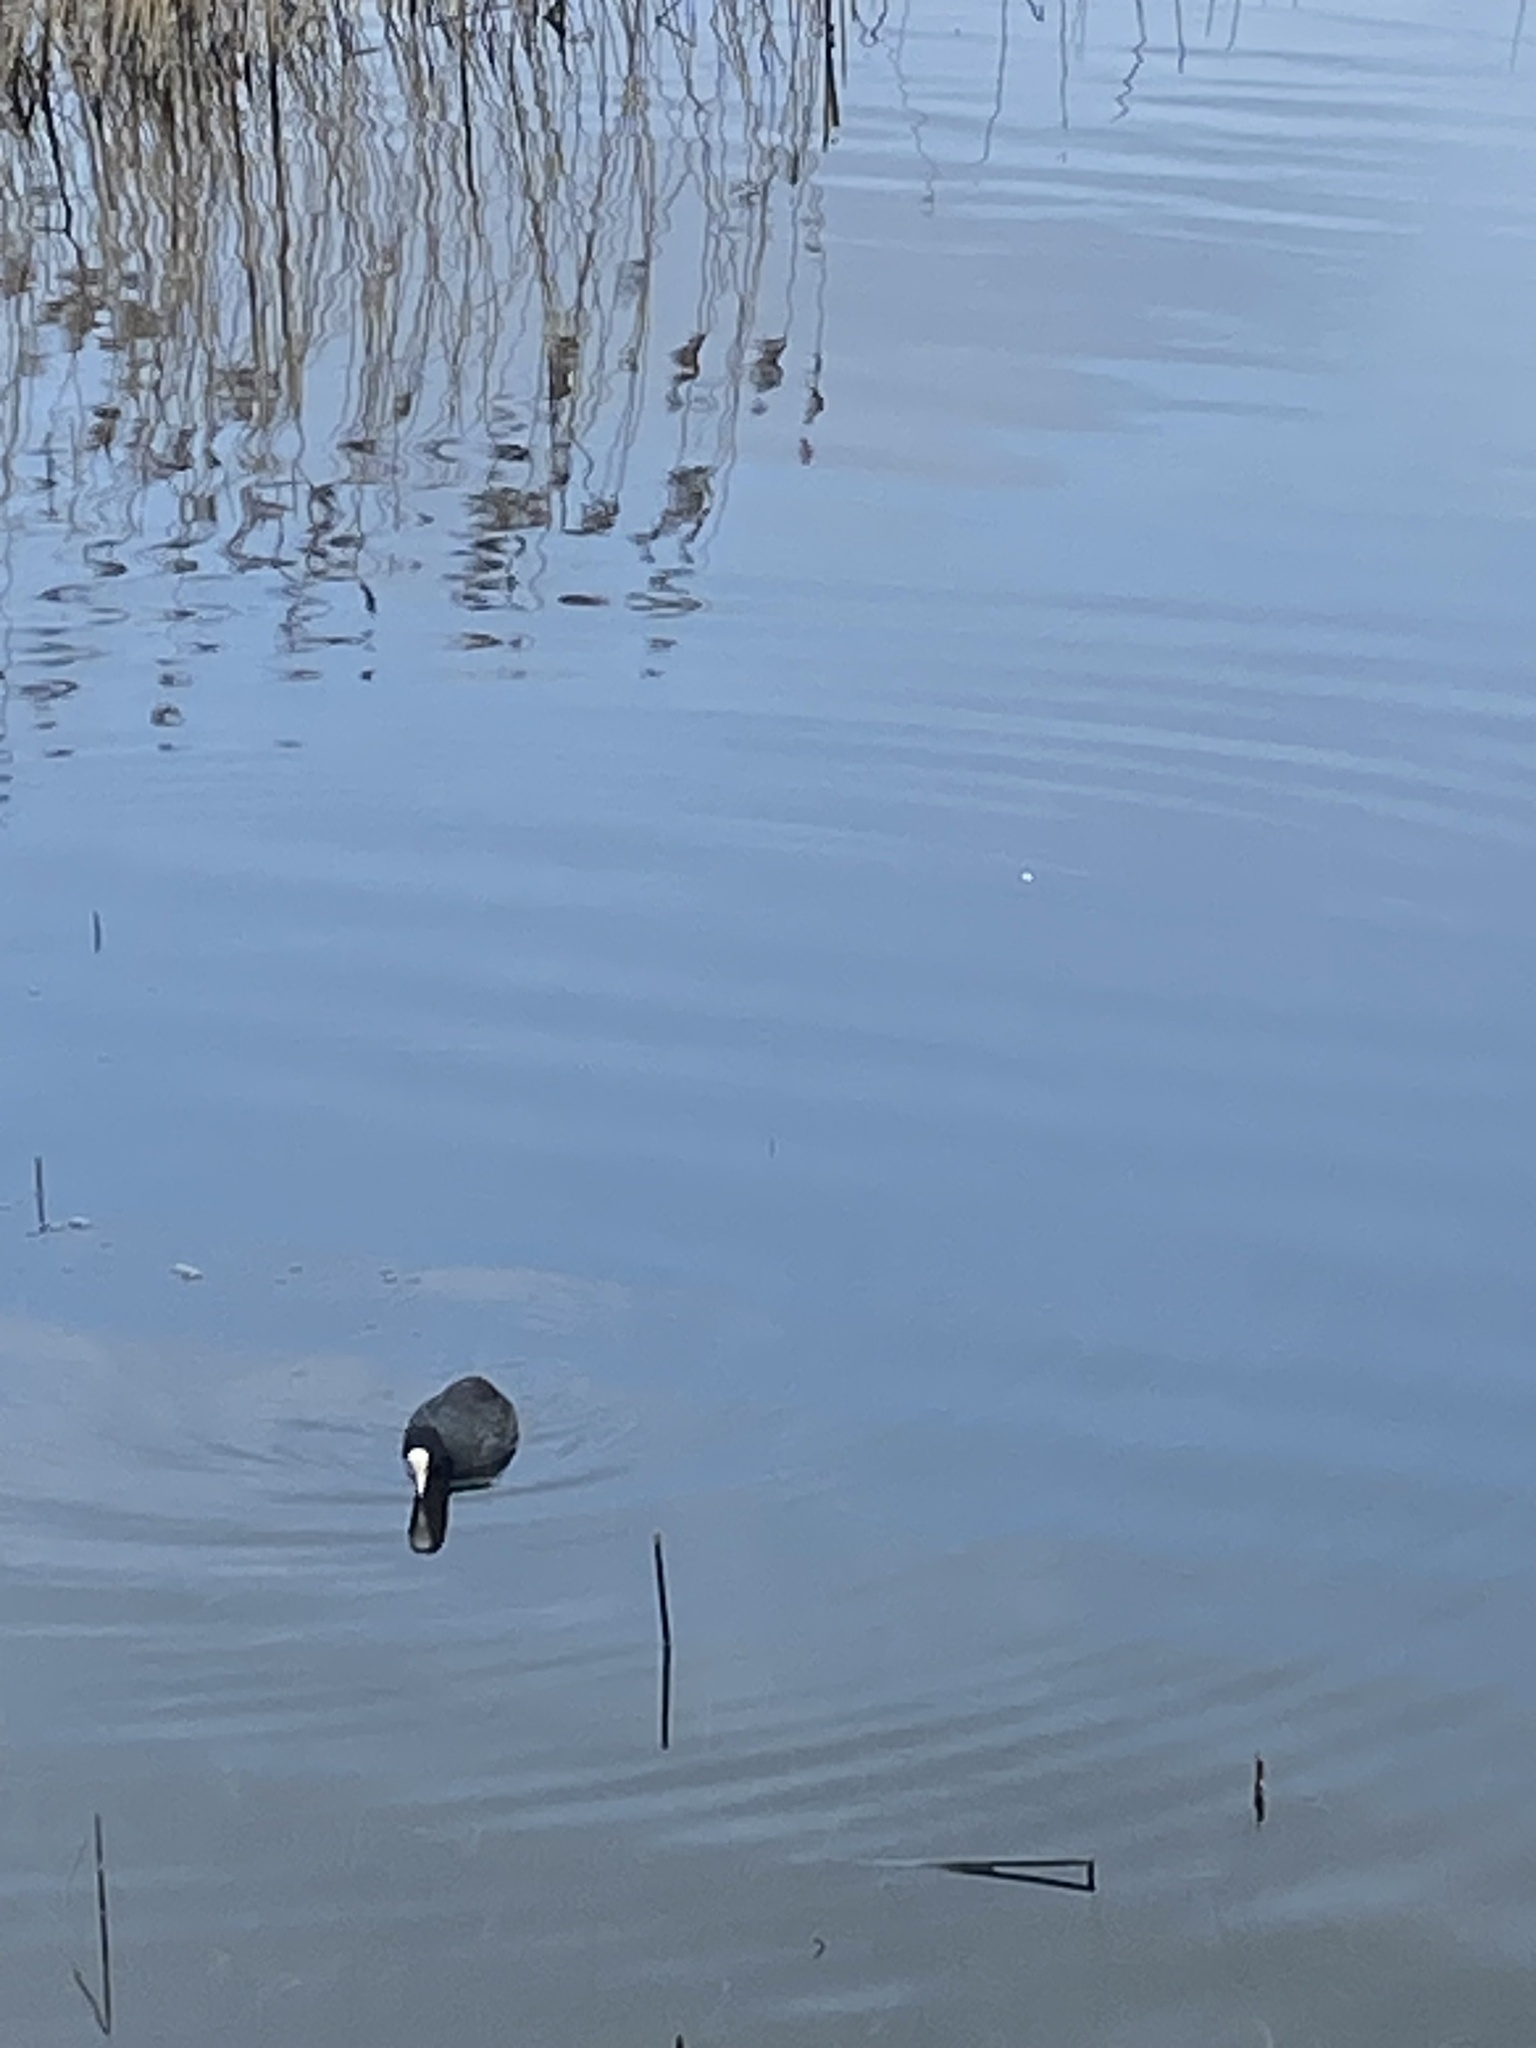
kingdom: Animalia
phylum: Chordata
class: Aves
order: Gruiformes
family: Rallidae
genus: Fulica
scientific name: Fulica atra
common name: Eurasian coot
